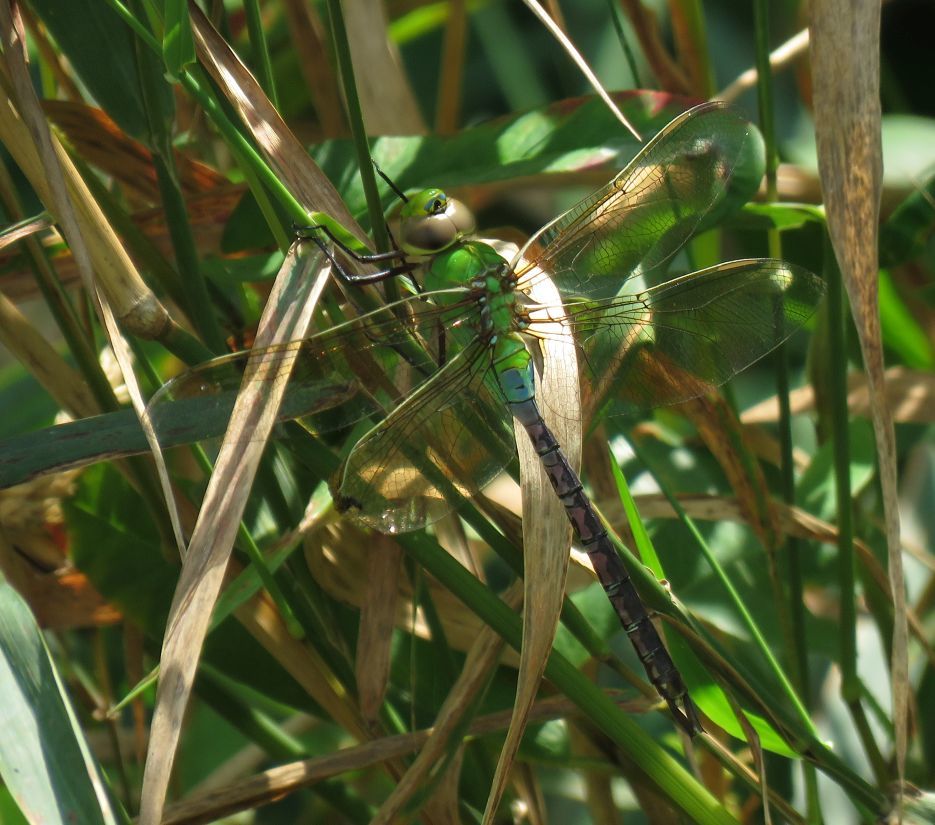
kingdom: Animalia
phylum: Arthropoda
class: Insecta
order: Odonata
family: Aeshnidae
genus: Anax
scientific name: Anax junius
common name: Common green darner
